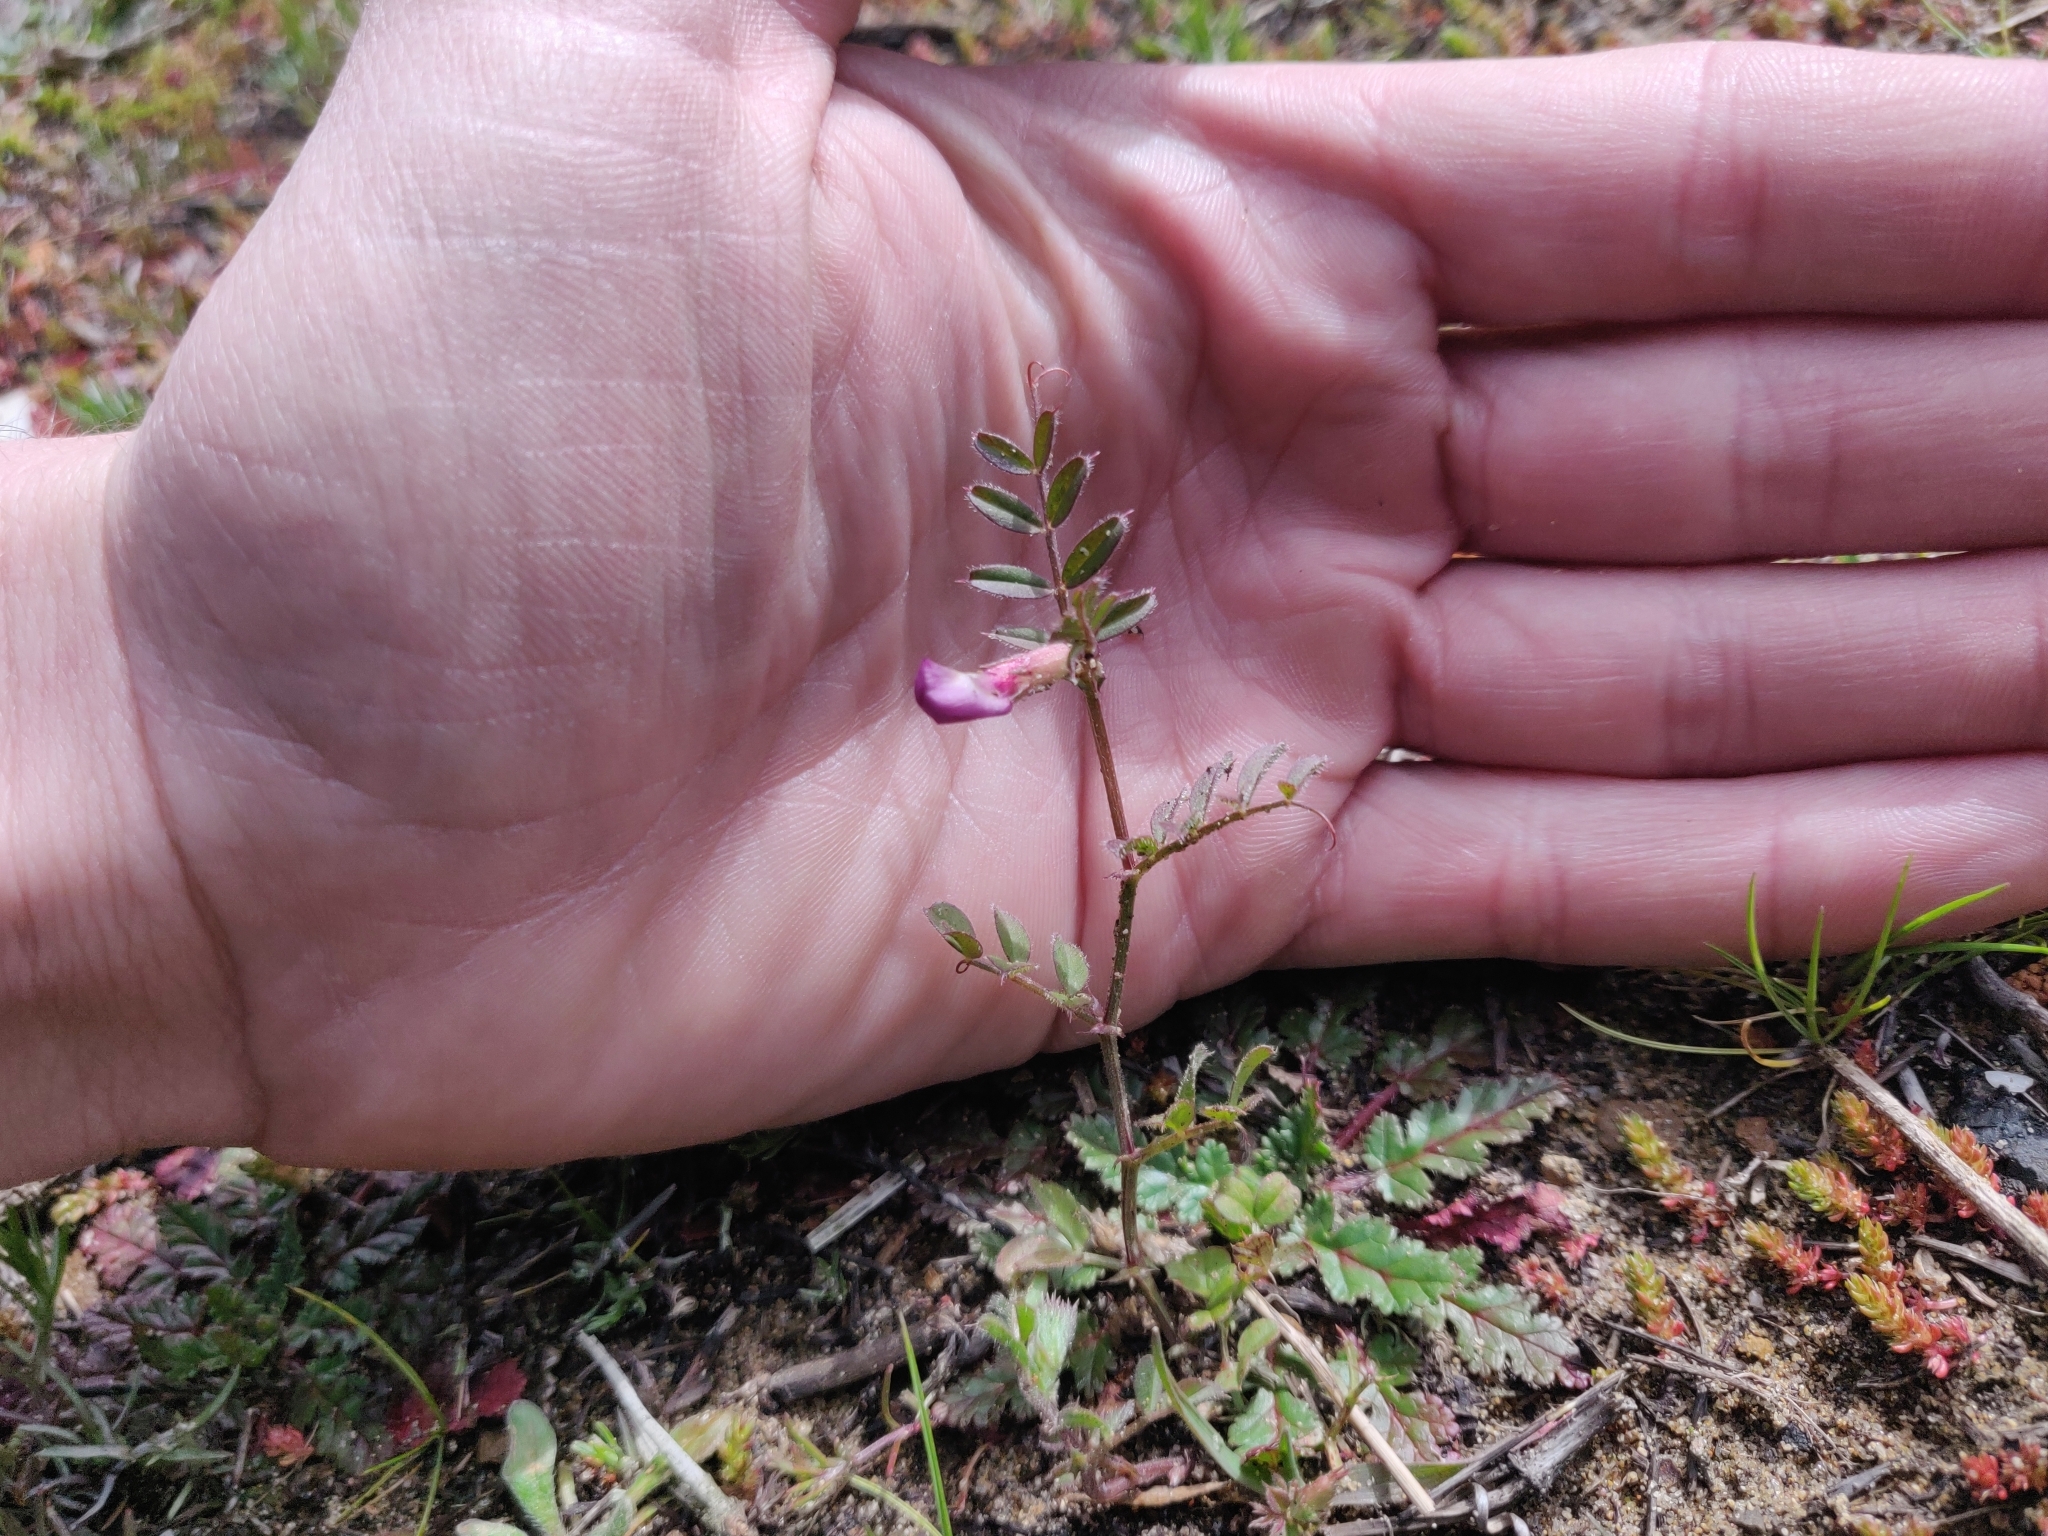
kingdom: Plantae
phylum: Tracheophyta
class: Magnoliopsida
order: Fabales
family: Fabaceae
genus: Vicia
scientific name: Vicia sativa
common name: Garden vetch
